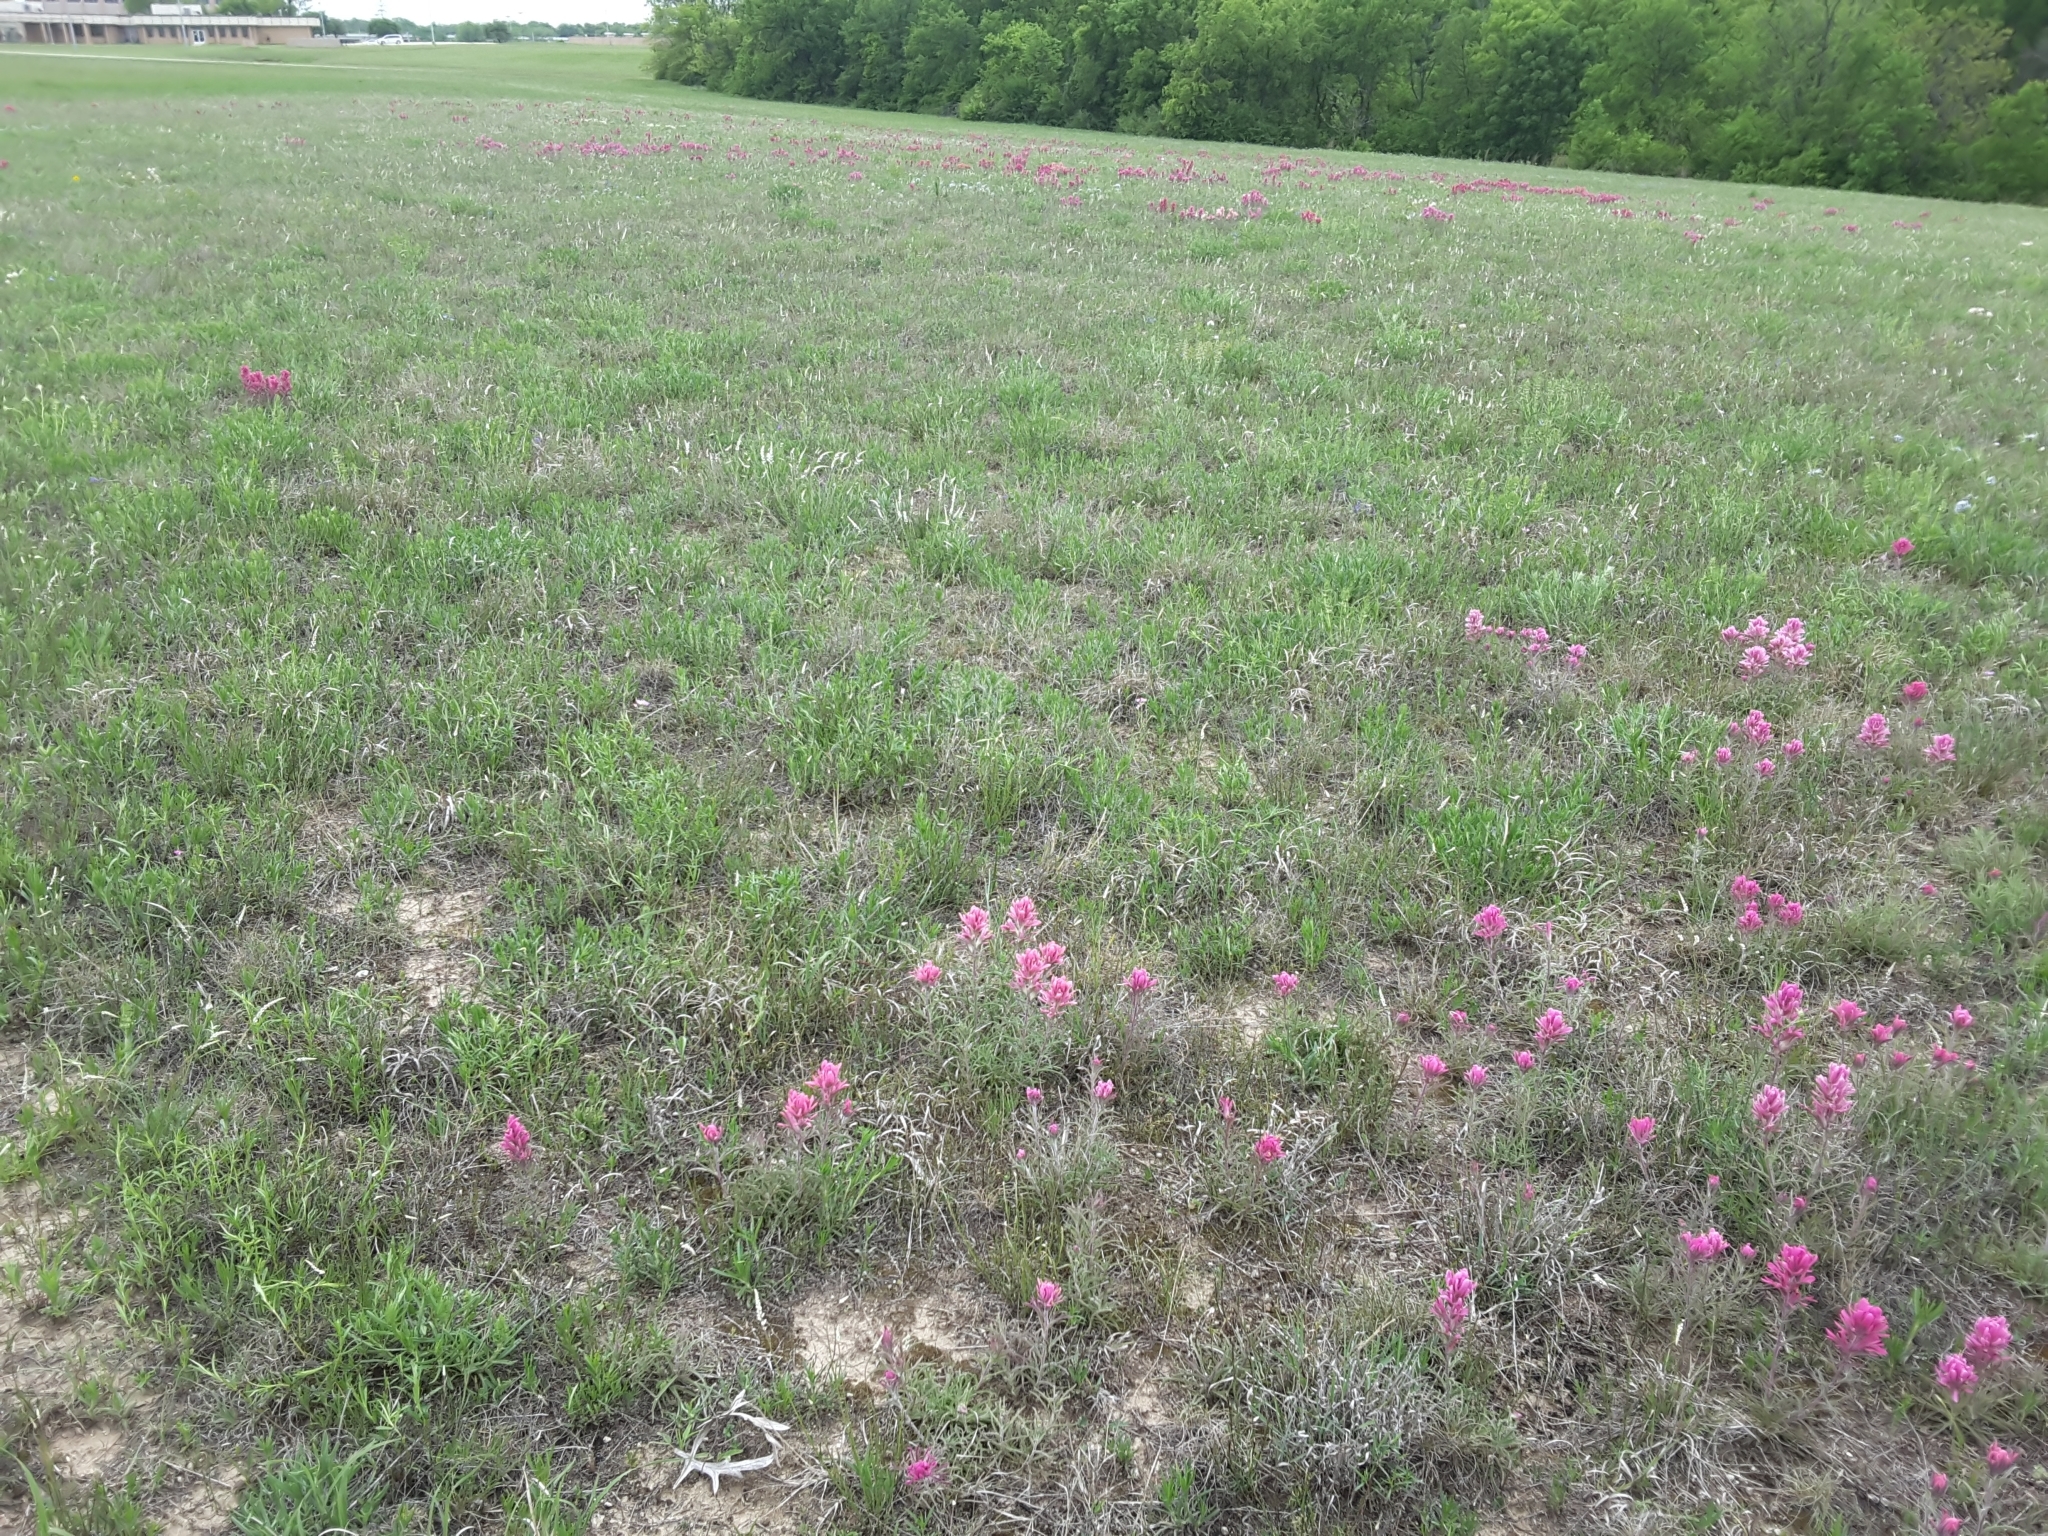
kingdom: Plantae
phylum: Tracheophyta
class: Magnoliopsida
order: Lamiales
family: Orobanchaceae
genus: Castilleja
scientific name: Castilleja purpurea
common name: Plains paintbrush
